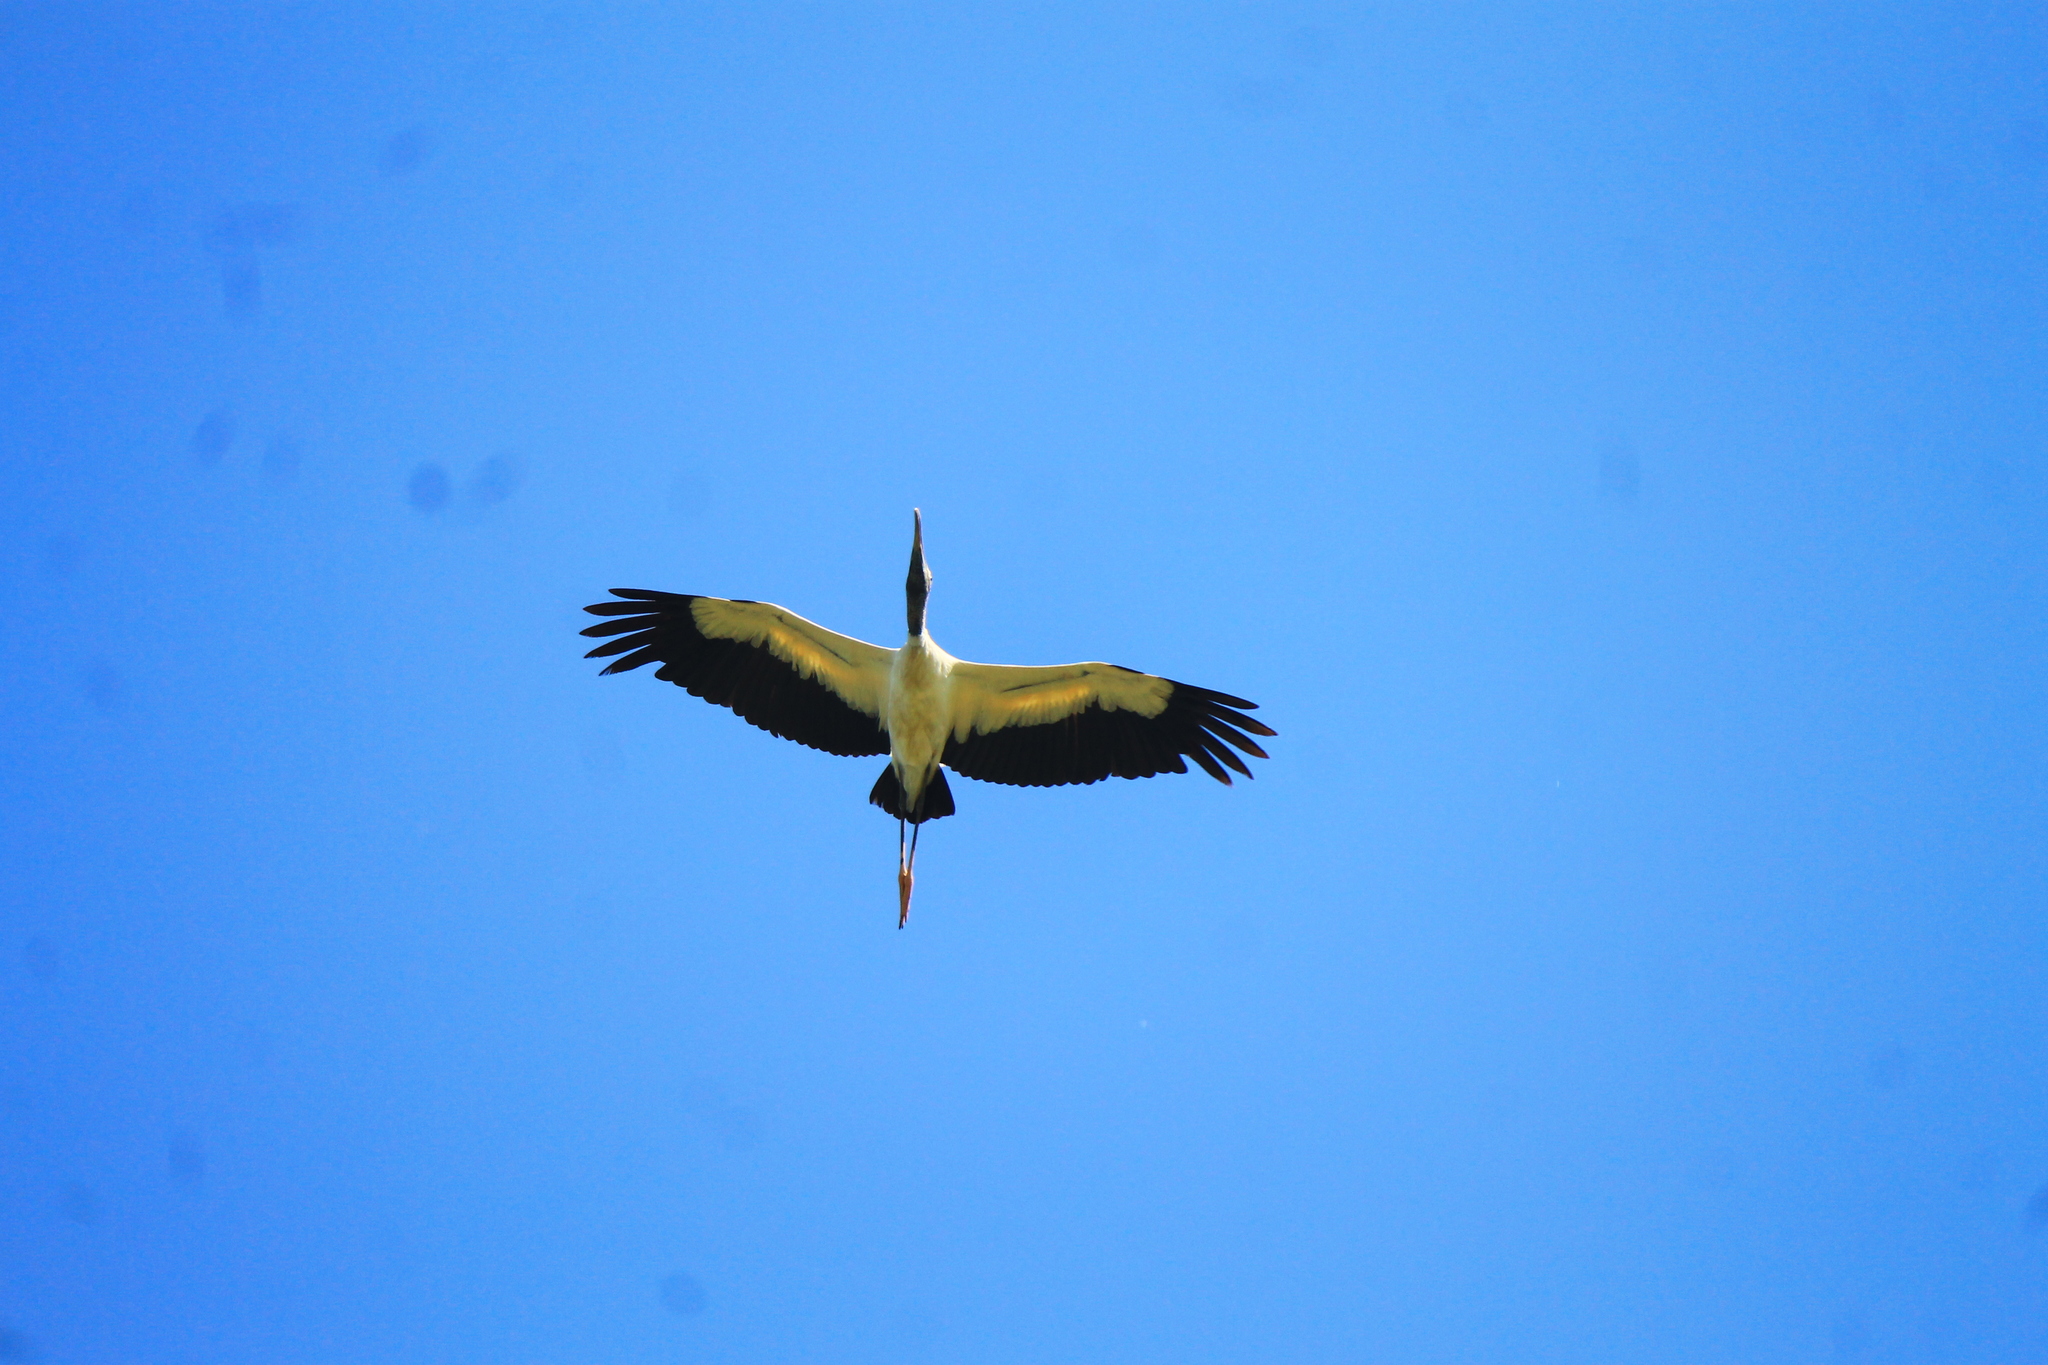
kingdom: Animalia
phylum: Chordata
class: Aves
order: Ciconiiformes
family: Ciconiidae
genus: Mycteria
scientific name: Mycteria americana
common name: Wood stork
